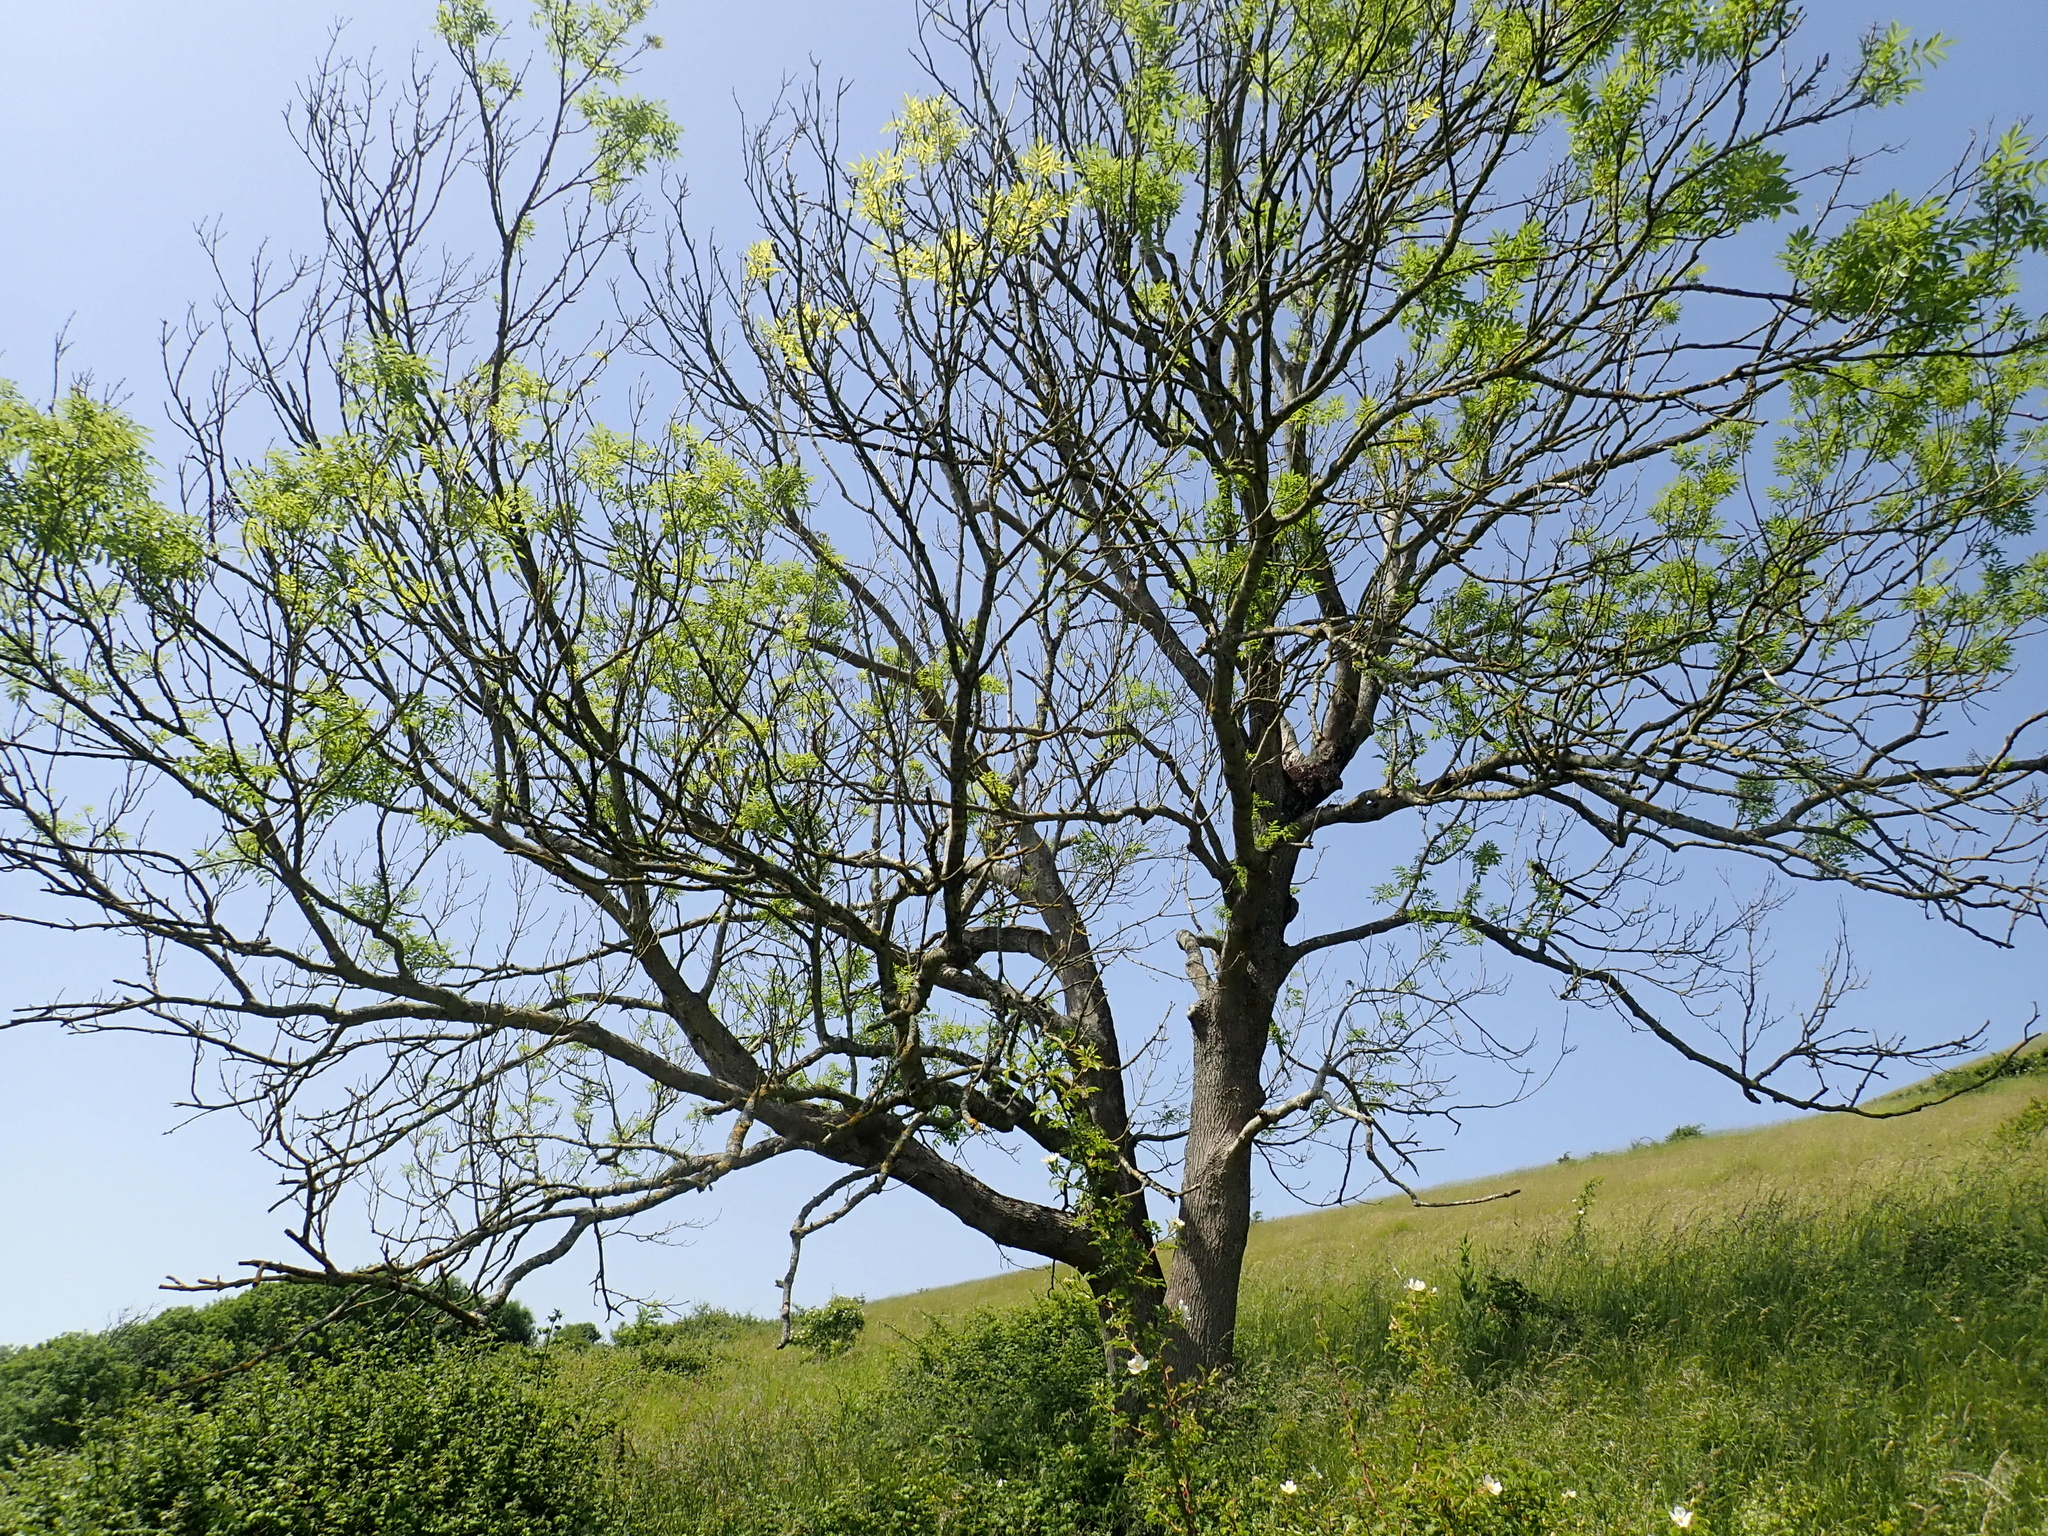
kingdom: Plantae
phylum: Tracheophyta
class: Magnoliopsida
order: Lamiales
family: Oleaceae
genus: Fraxinus
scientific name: Fraxinus excelsior
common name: European ash
